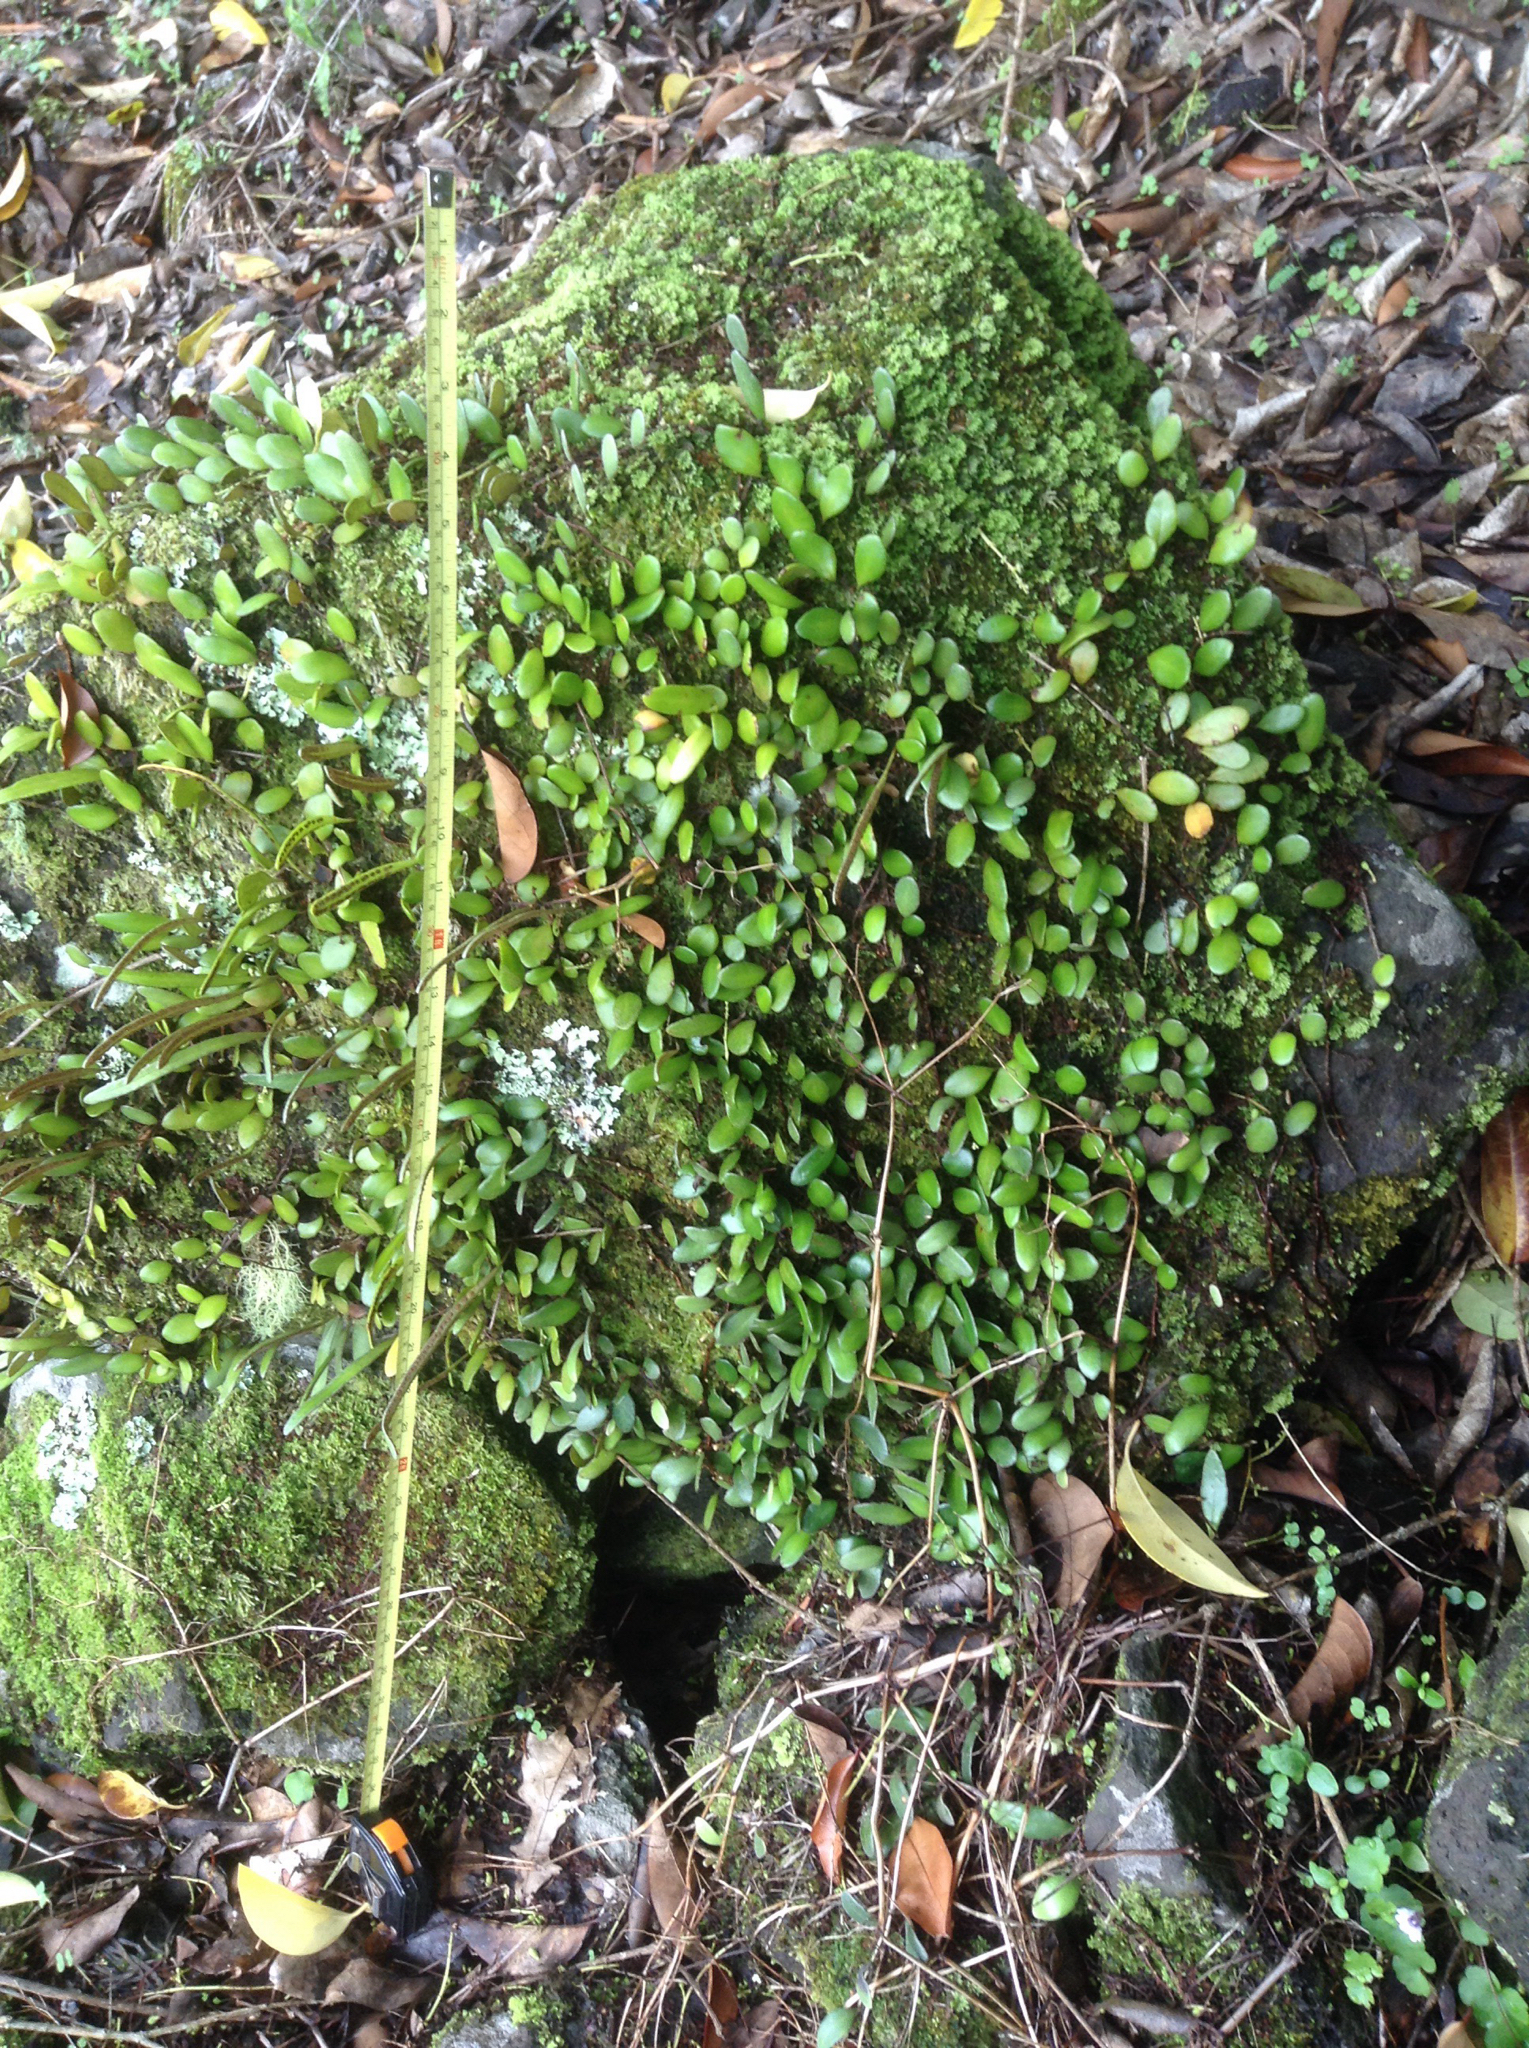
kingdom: Plantae
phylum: Tracheophyta
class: Polypodiopsida
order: Polypodiales
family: Polypodiaceae
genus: Pyrrosia
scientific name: Pyrrosia eleagnifolia
